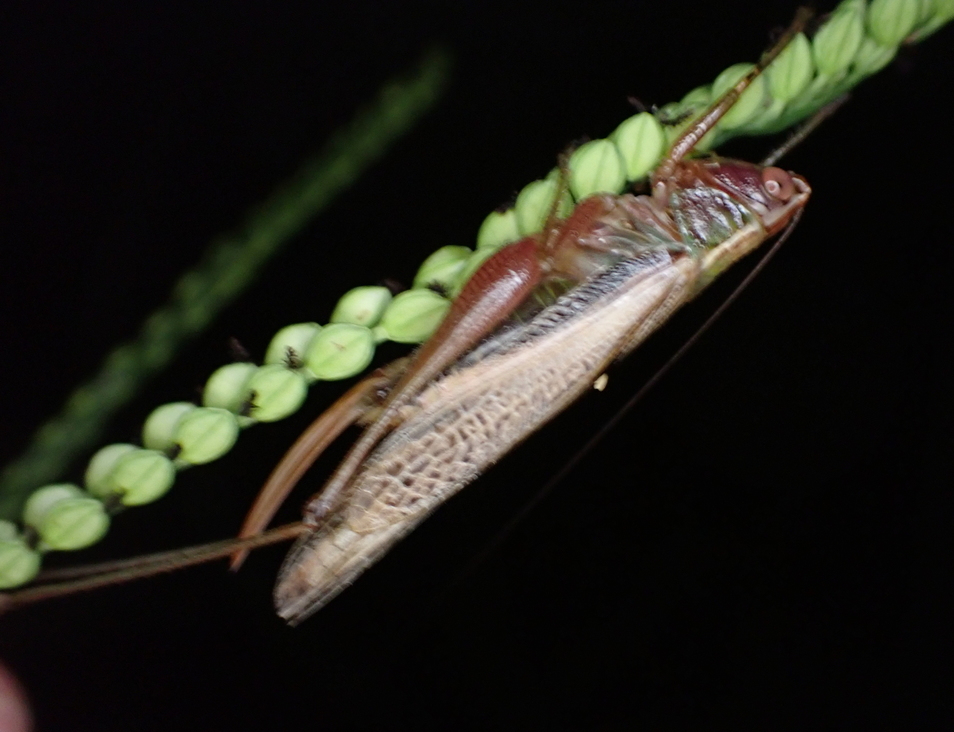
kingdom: Animalia
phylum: Arthropoda
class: Insecta
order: Orthoptera
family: Tettigoniidae
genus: Conocephalus
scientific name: Conocephalus nemoralis
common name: Woodland meadow katydid
